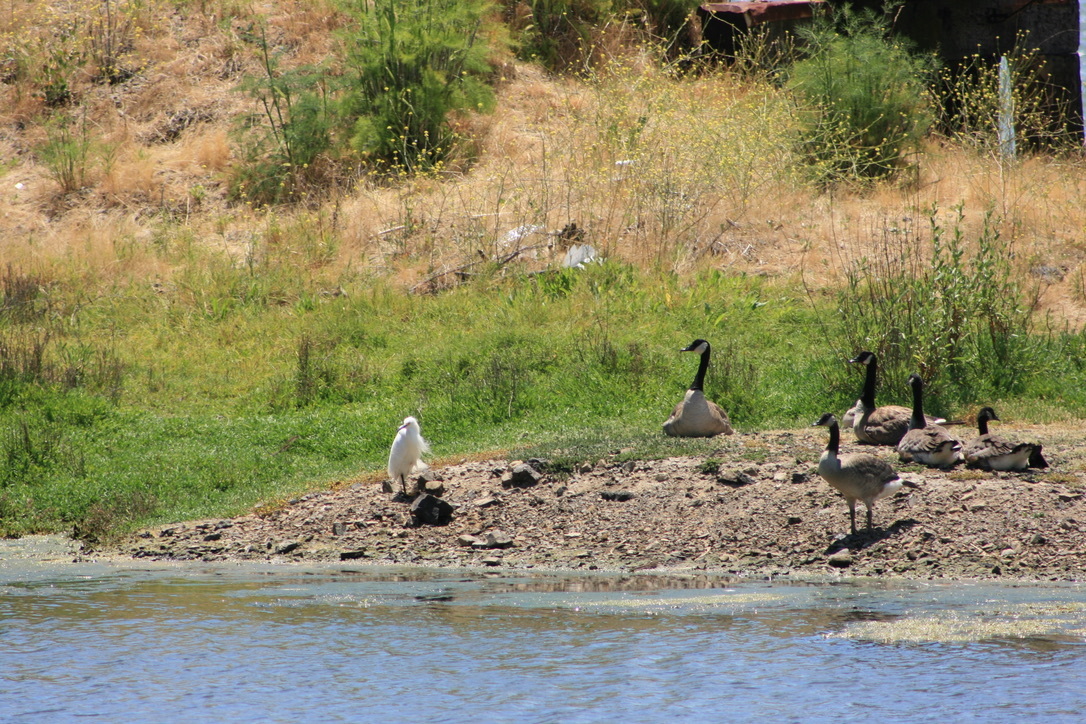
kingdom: Animalia
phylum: Chordata
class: Aves
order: Anseriformes
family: Anatidae
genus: Branta
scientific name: Branta canadensis
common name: Canada goose
